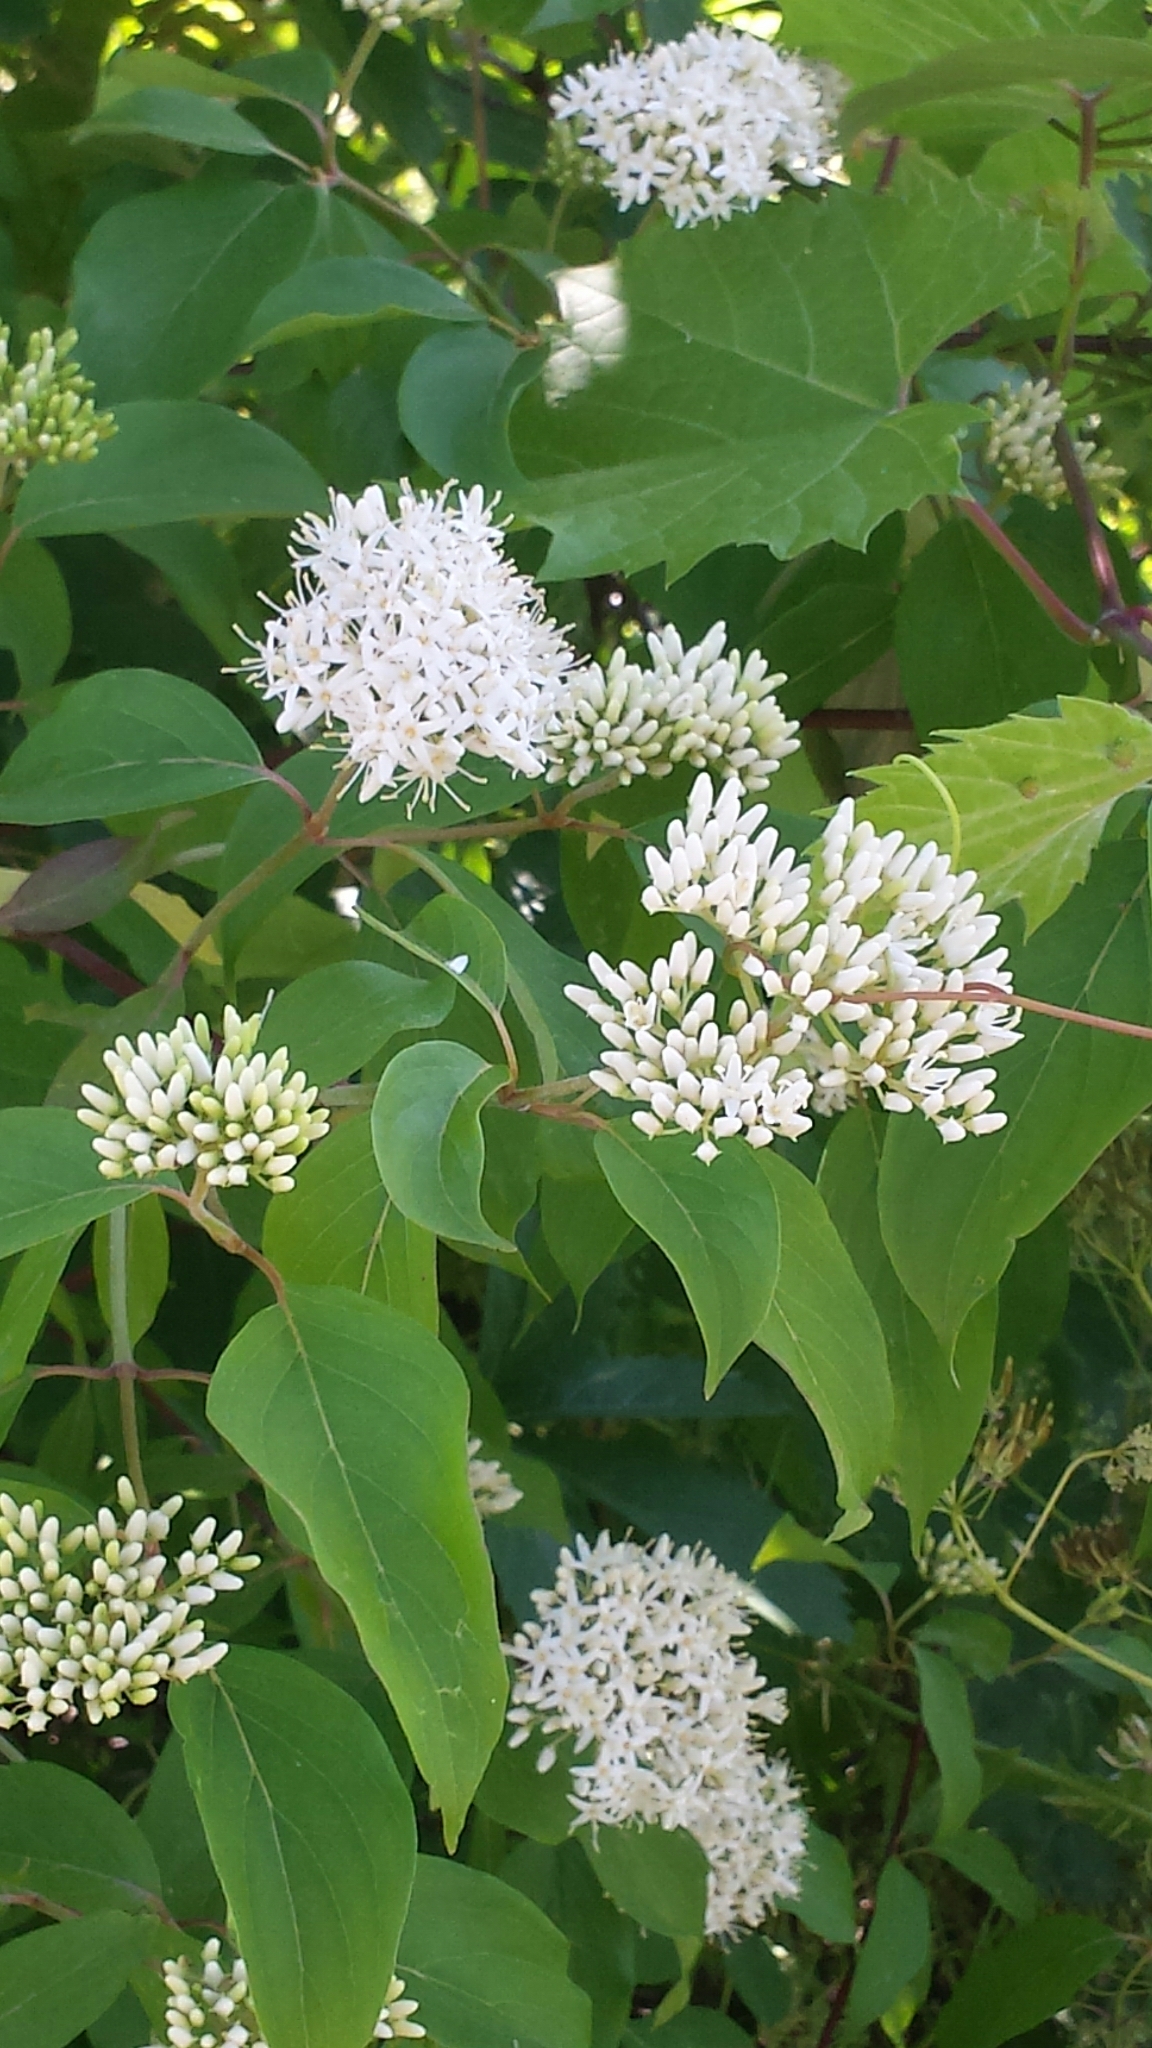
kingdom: Plantae
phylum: Tracheophyta
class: Magnoliopsida
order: Cornales
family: Cornaceae
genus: Cornus
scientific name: Cornus amomum
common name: Silky dogwood
